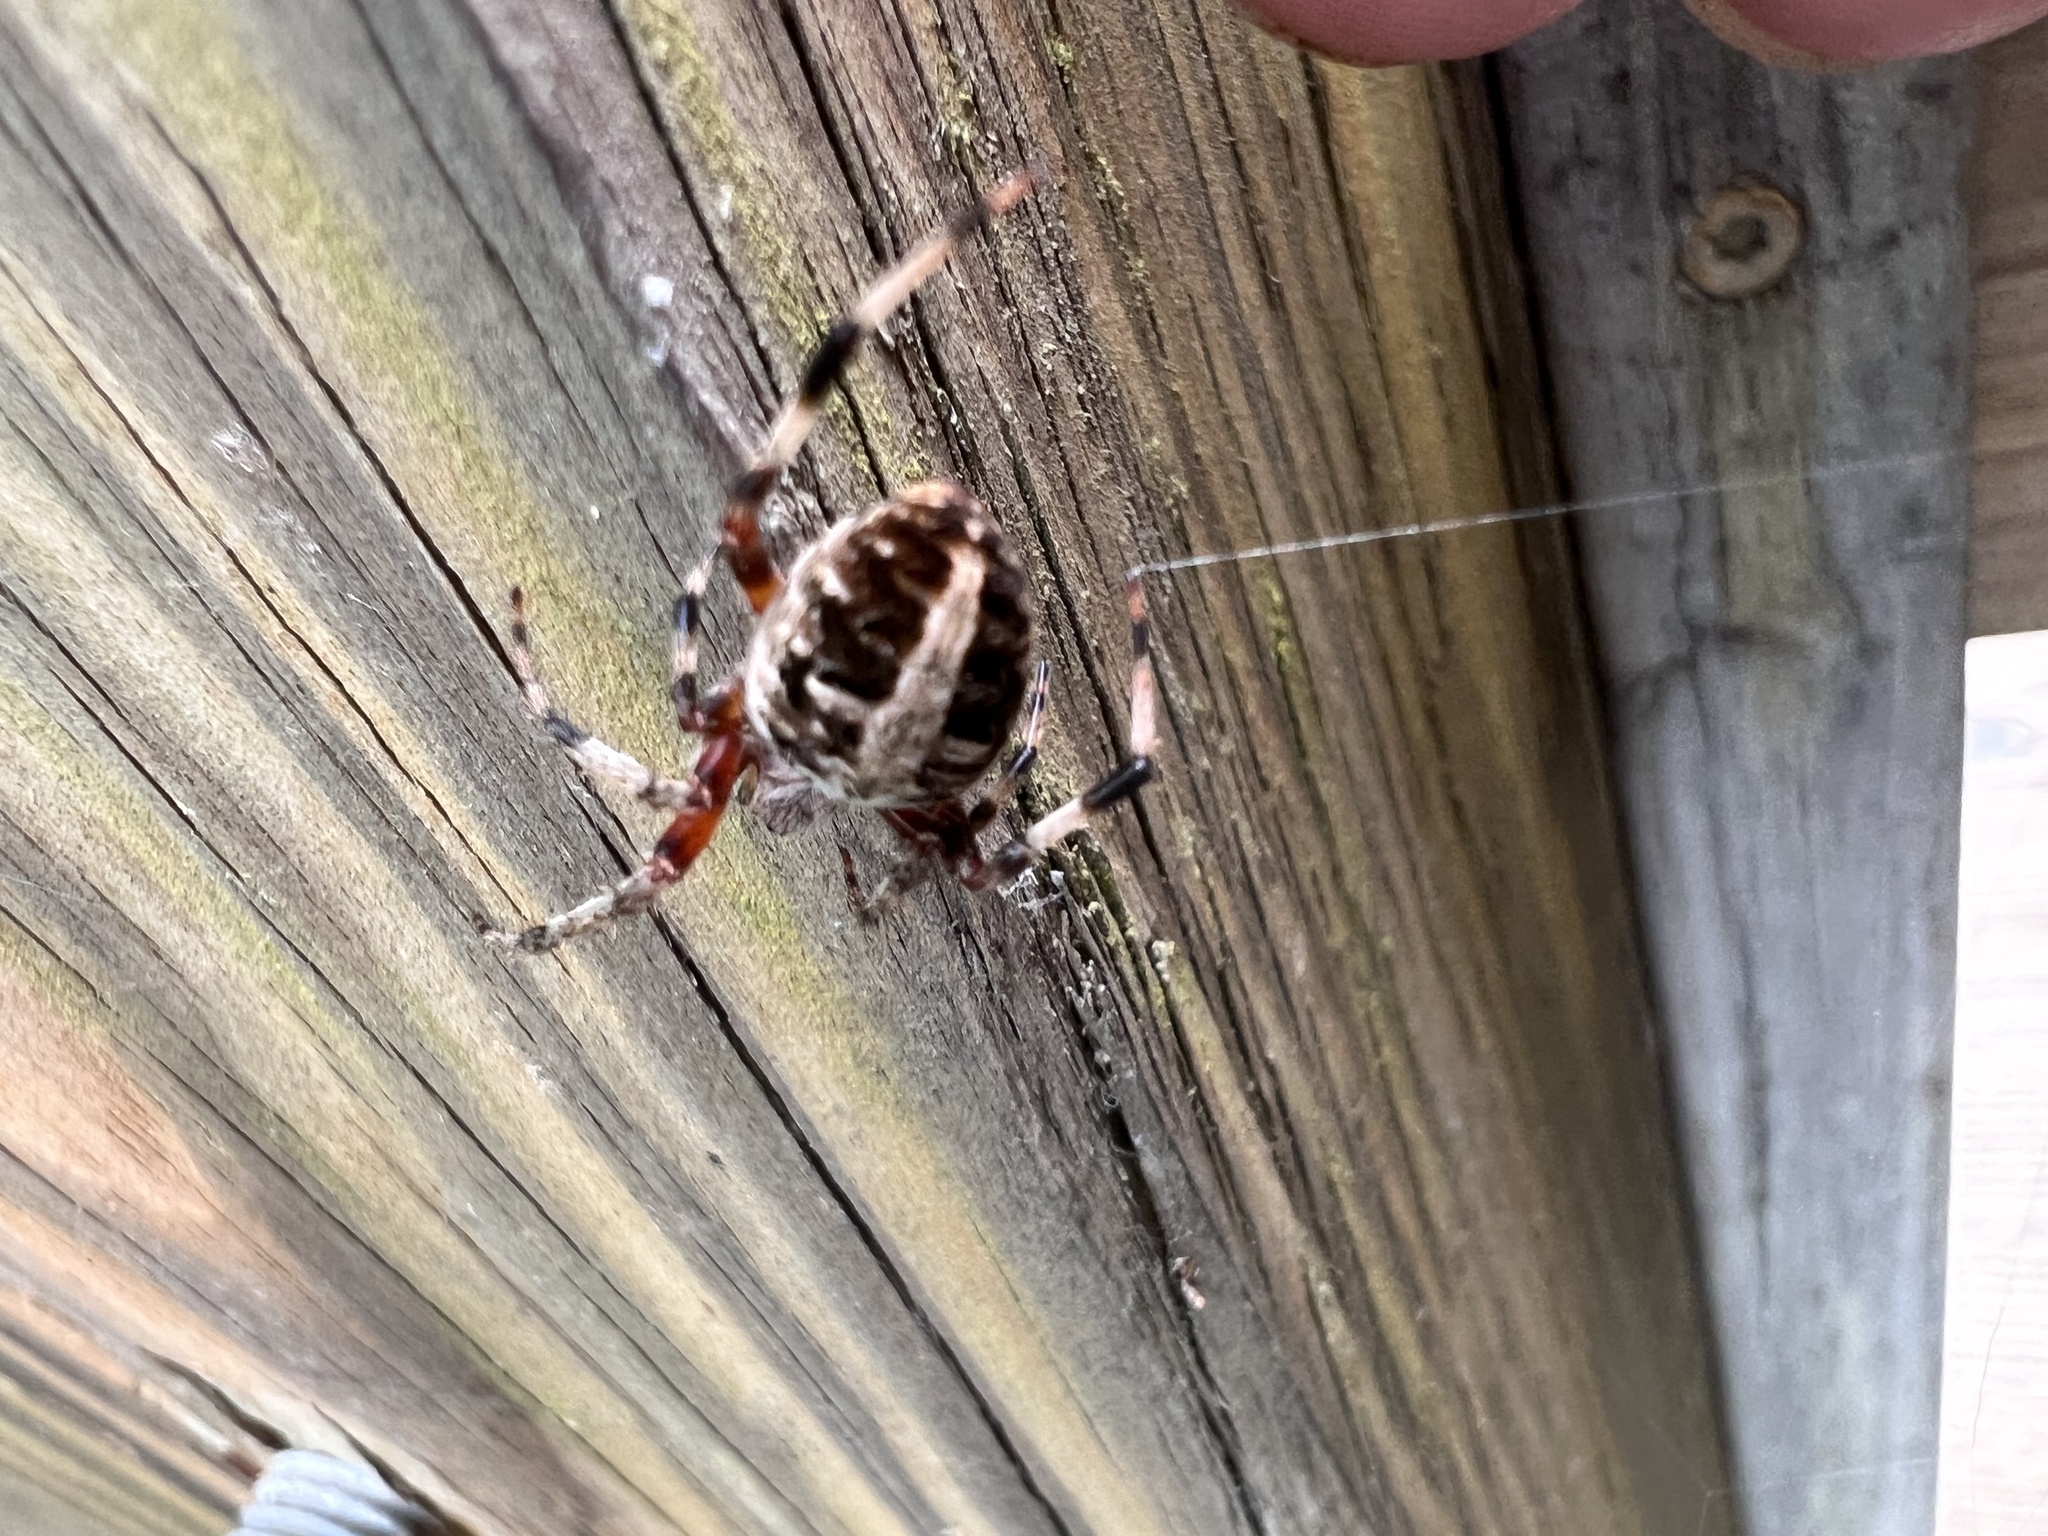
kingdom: Animalia
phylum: Arthropoda
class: Arachnida
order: Araneae
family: Araneidae
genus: Neoscona
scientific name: Neoscona domiciliorum
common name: Red-femured spotted orbweaver
